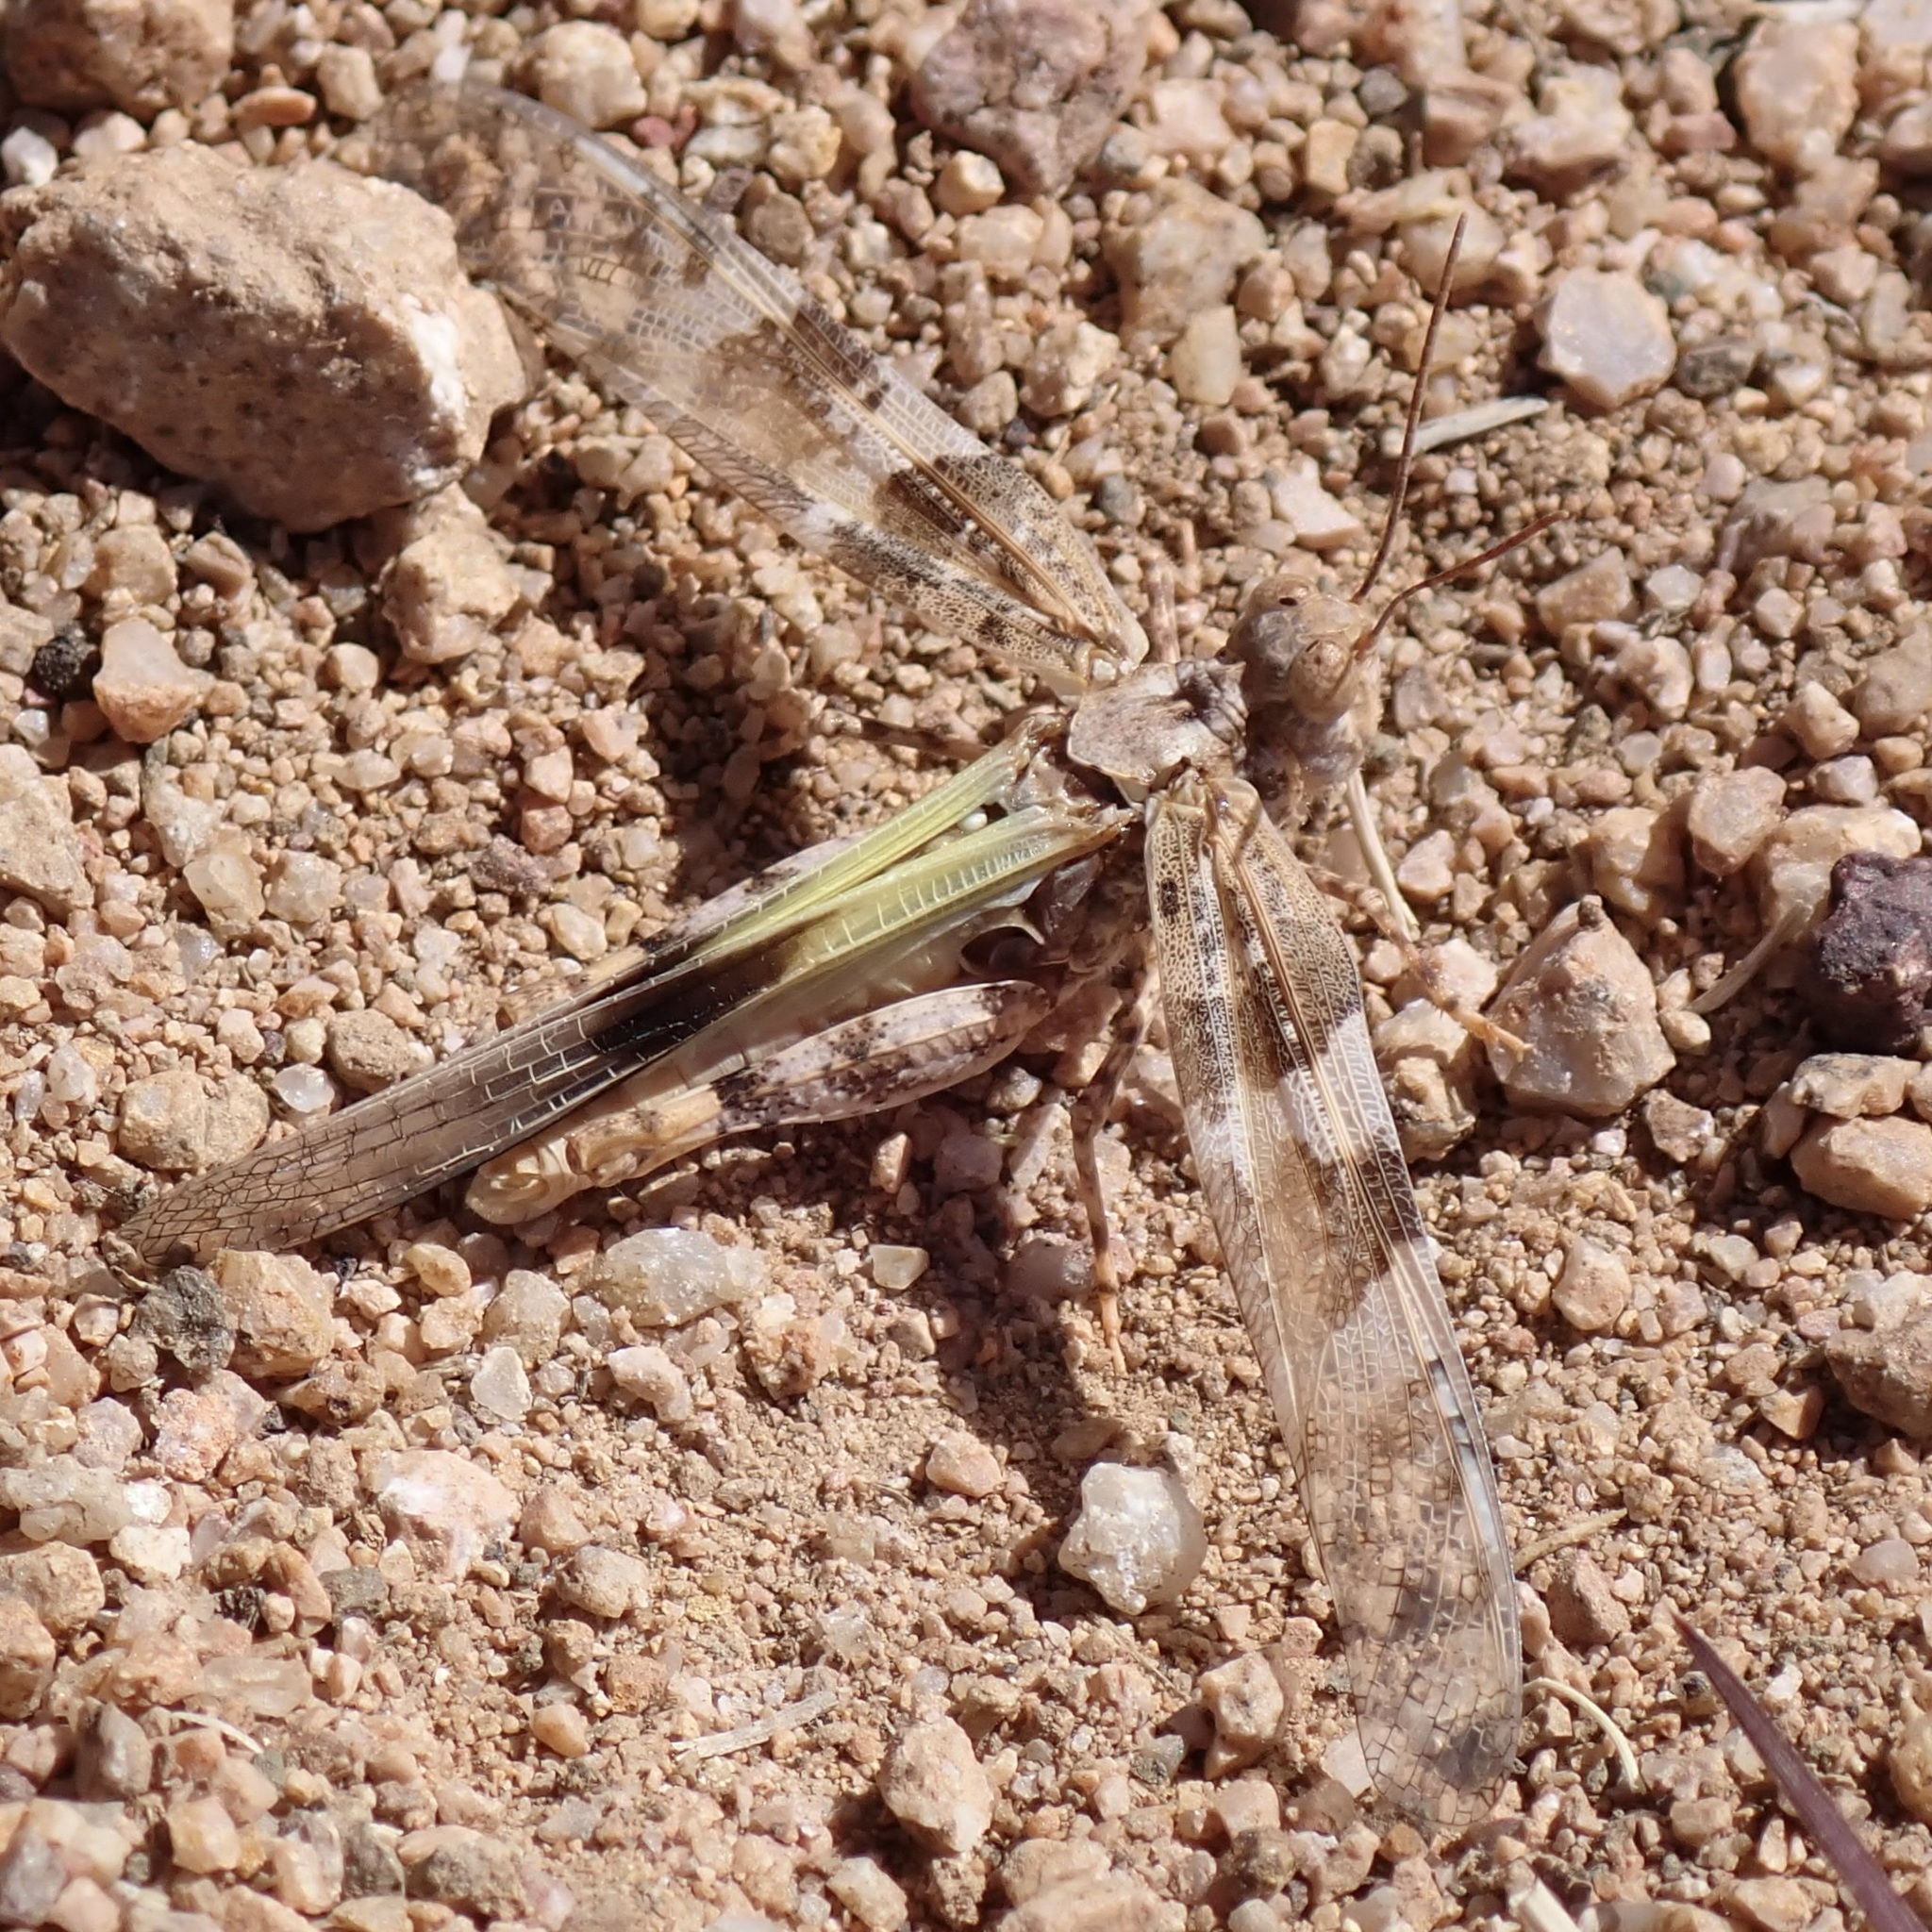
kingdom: Animalia
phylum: Arthropoda
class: Insecta
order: Orthoptera
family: Acrididae
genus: Trimerotropis
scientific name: Trimerotropis pallidipennis
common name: Pallid-winged grasshopper
